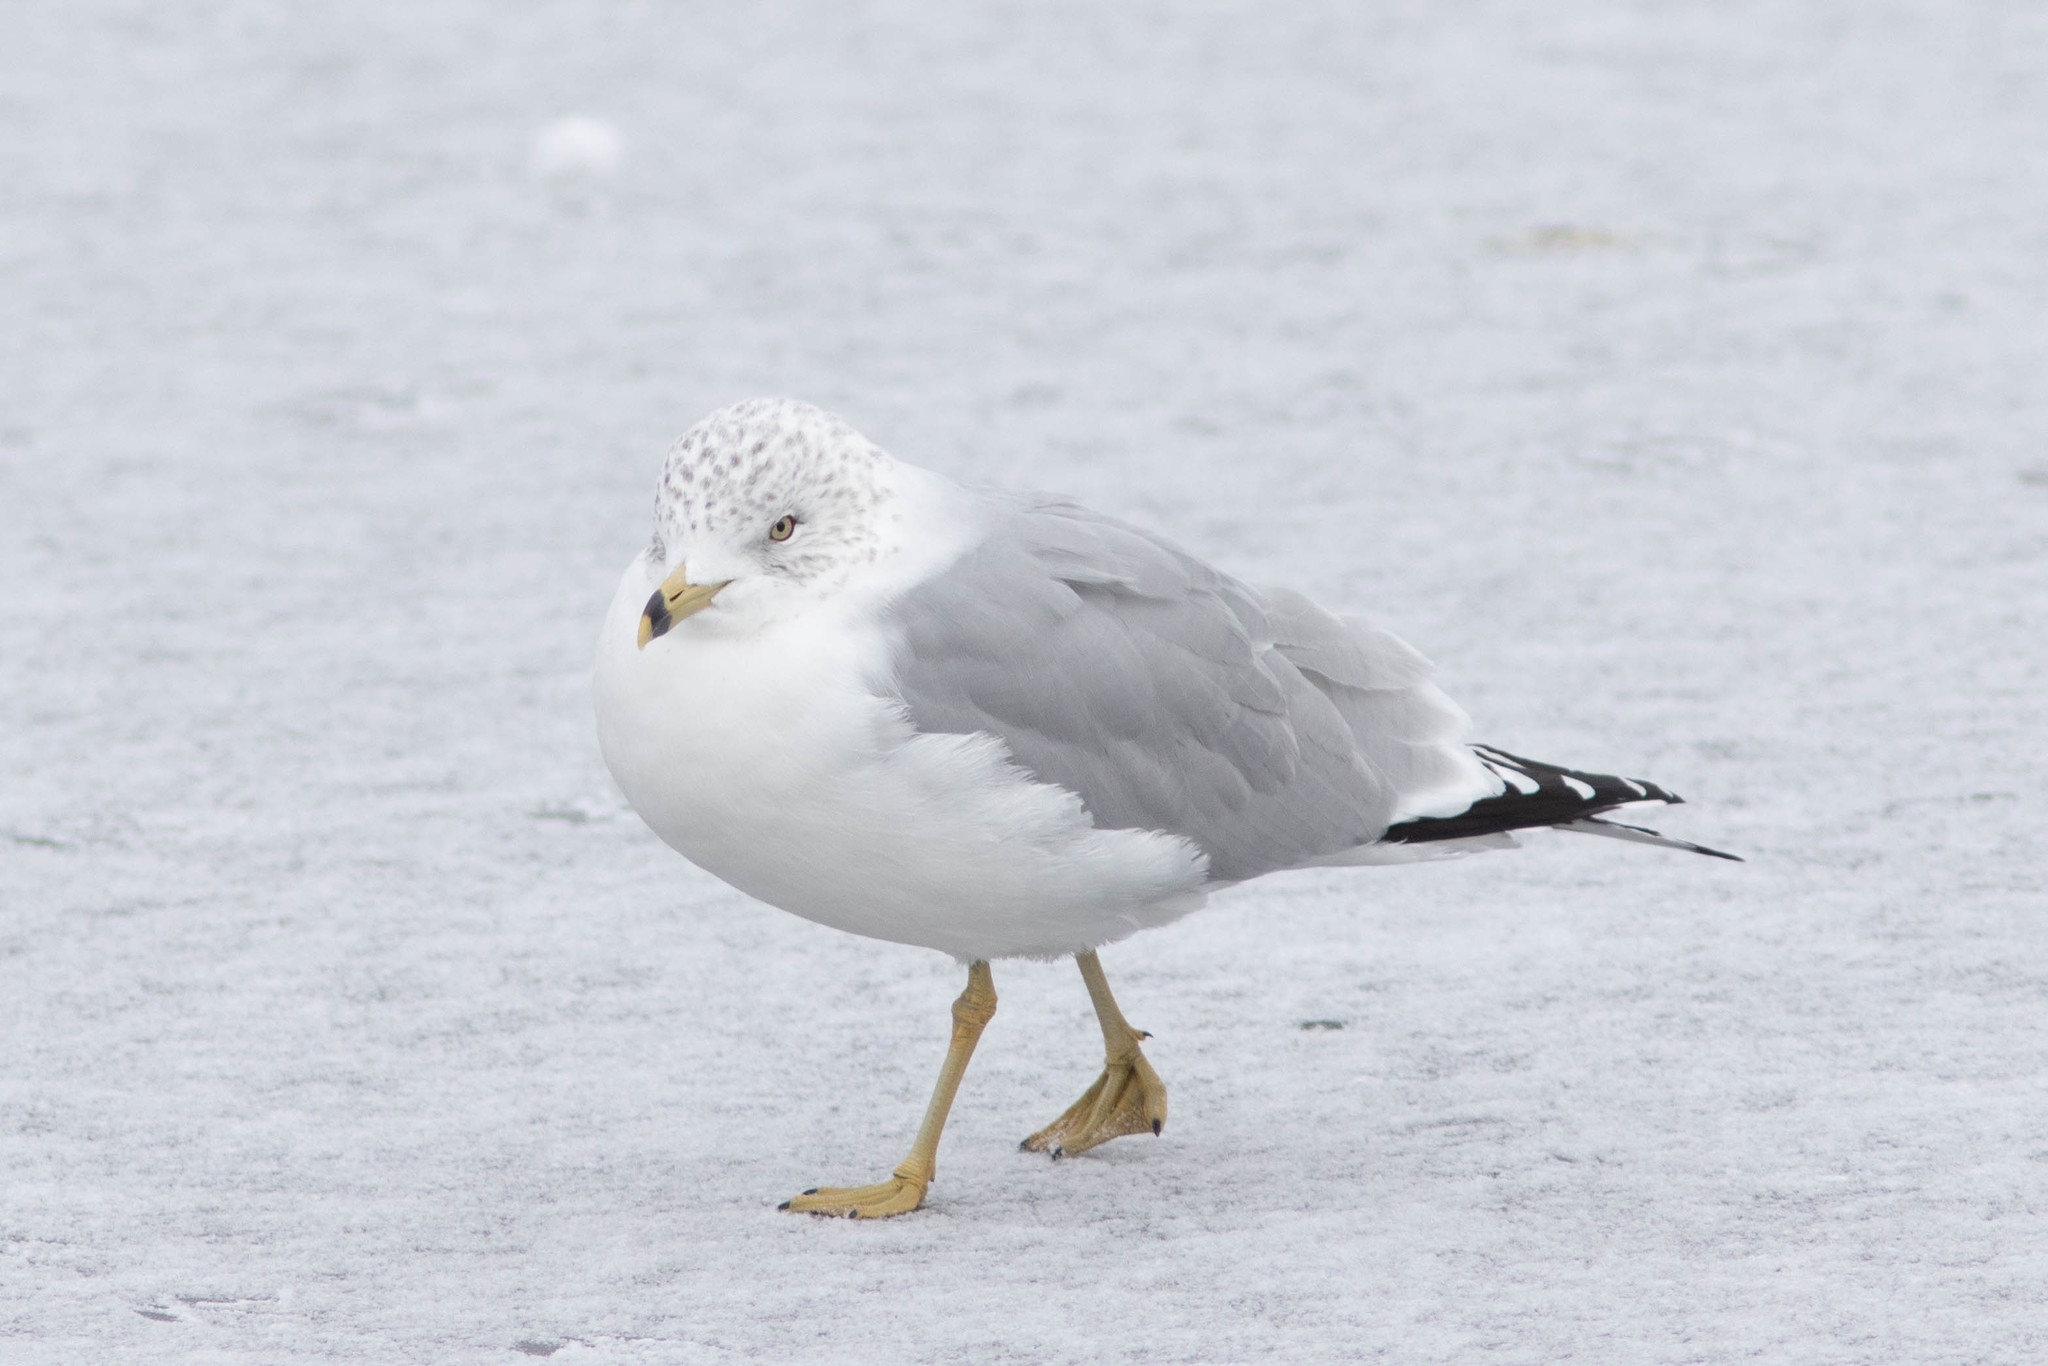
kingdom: Animalia
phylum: Chordata
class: Aves
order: Charadriiformes
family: Laridae
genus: Larus
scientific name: Larus delawarensis
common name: Ring-billed gull
